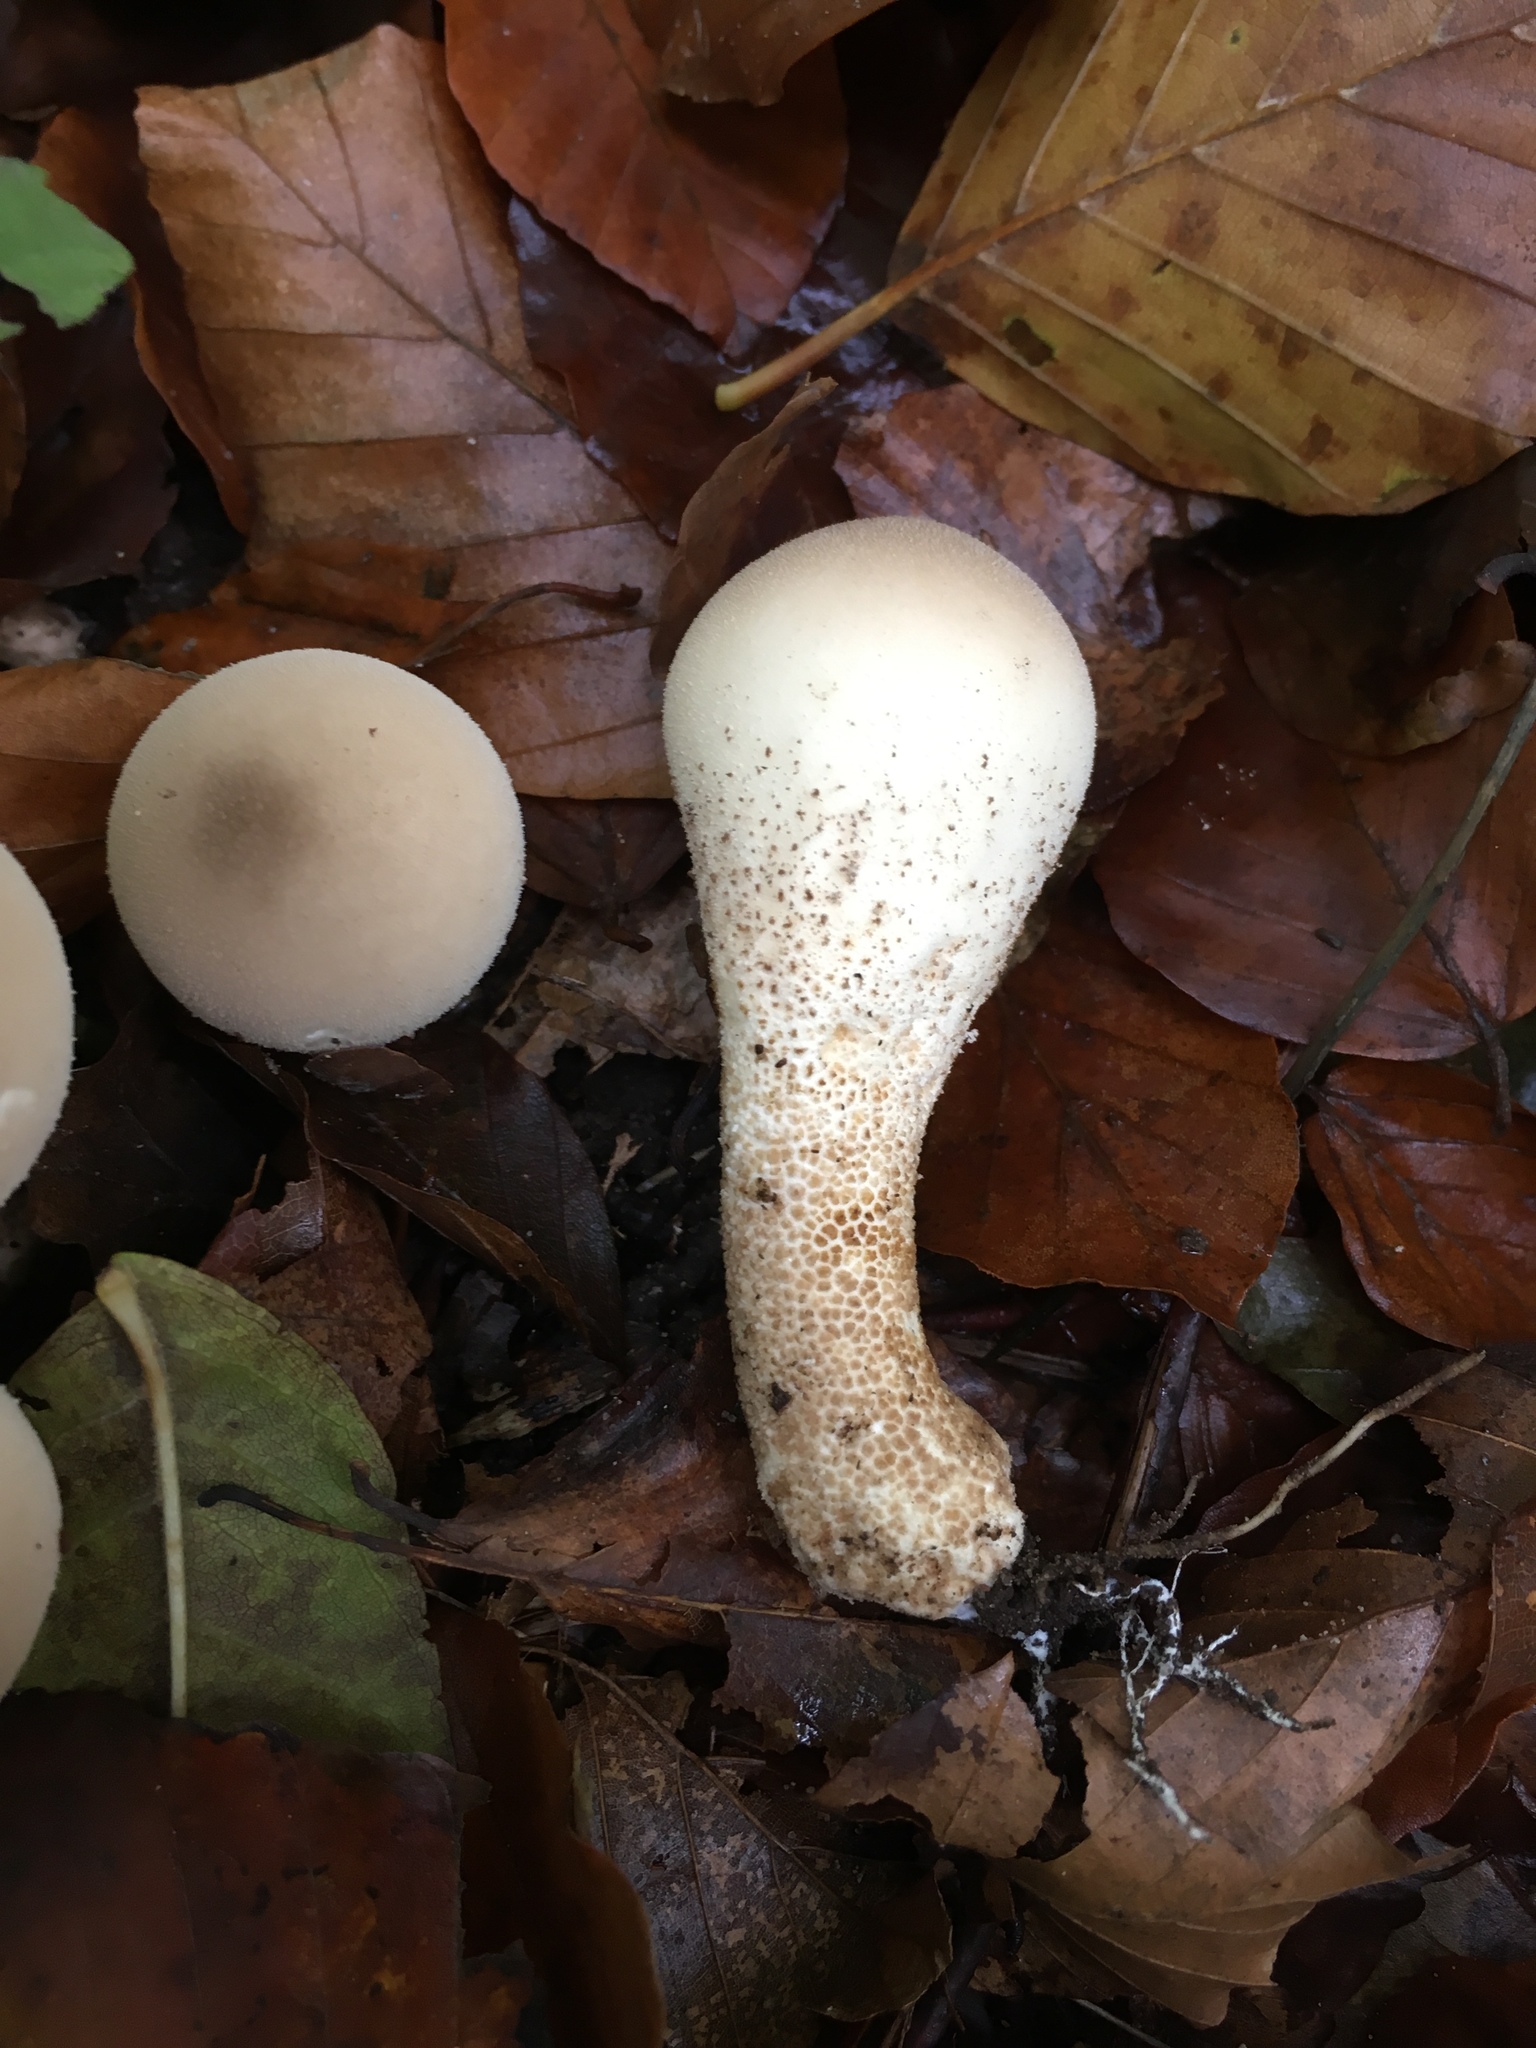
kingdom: Fungi
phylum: Basidiomycota
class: Agaricomycetes
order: Agaricales
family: Lycoperdaceae
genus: Apioperdon
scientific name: Apioperdon pyriforme
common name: Pear-shaped puffball
